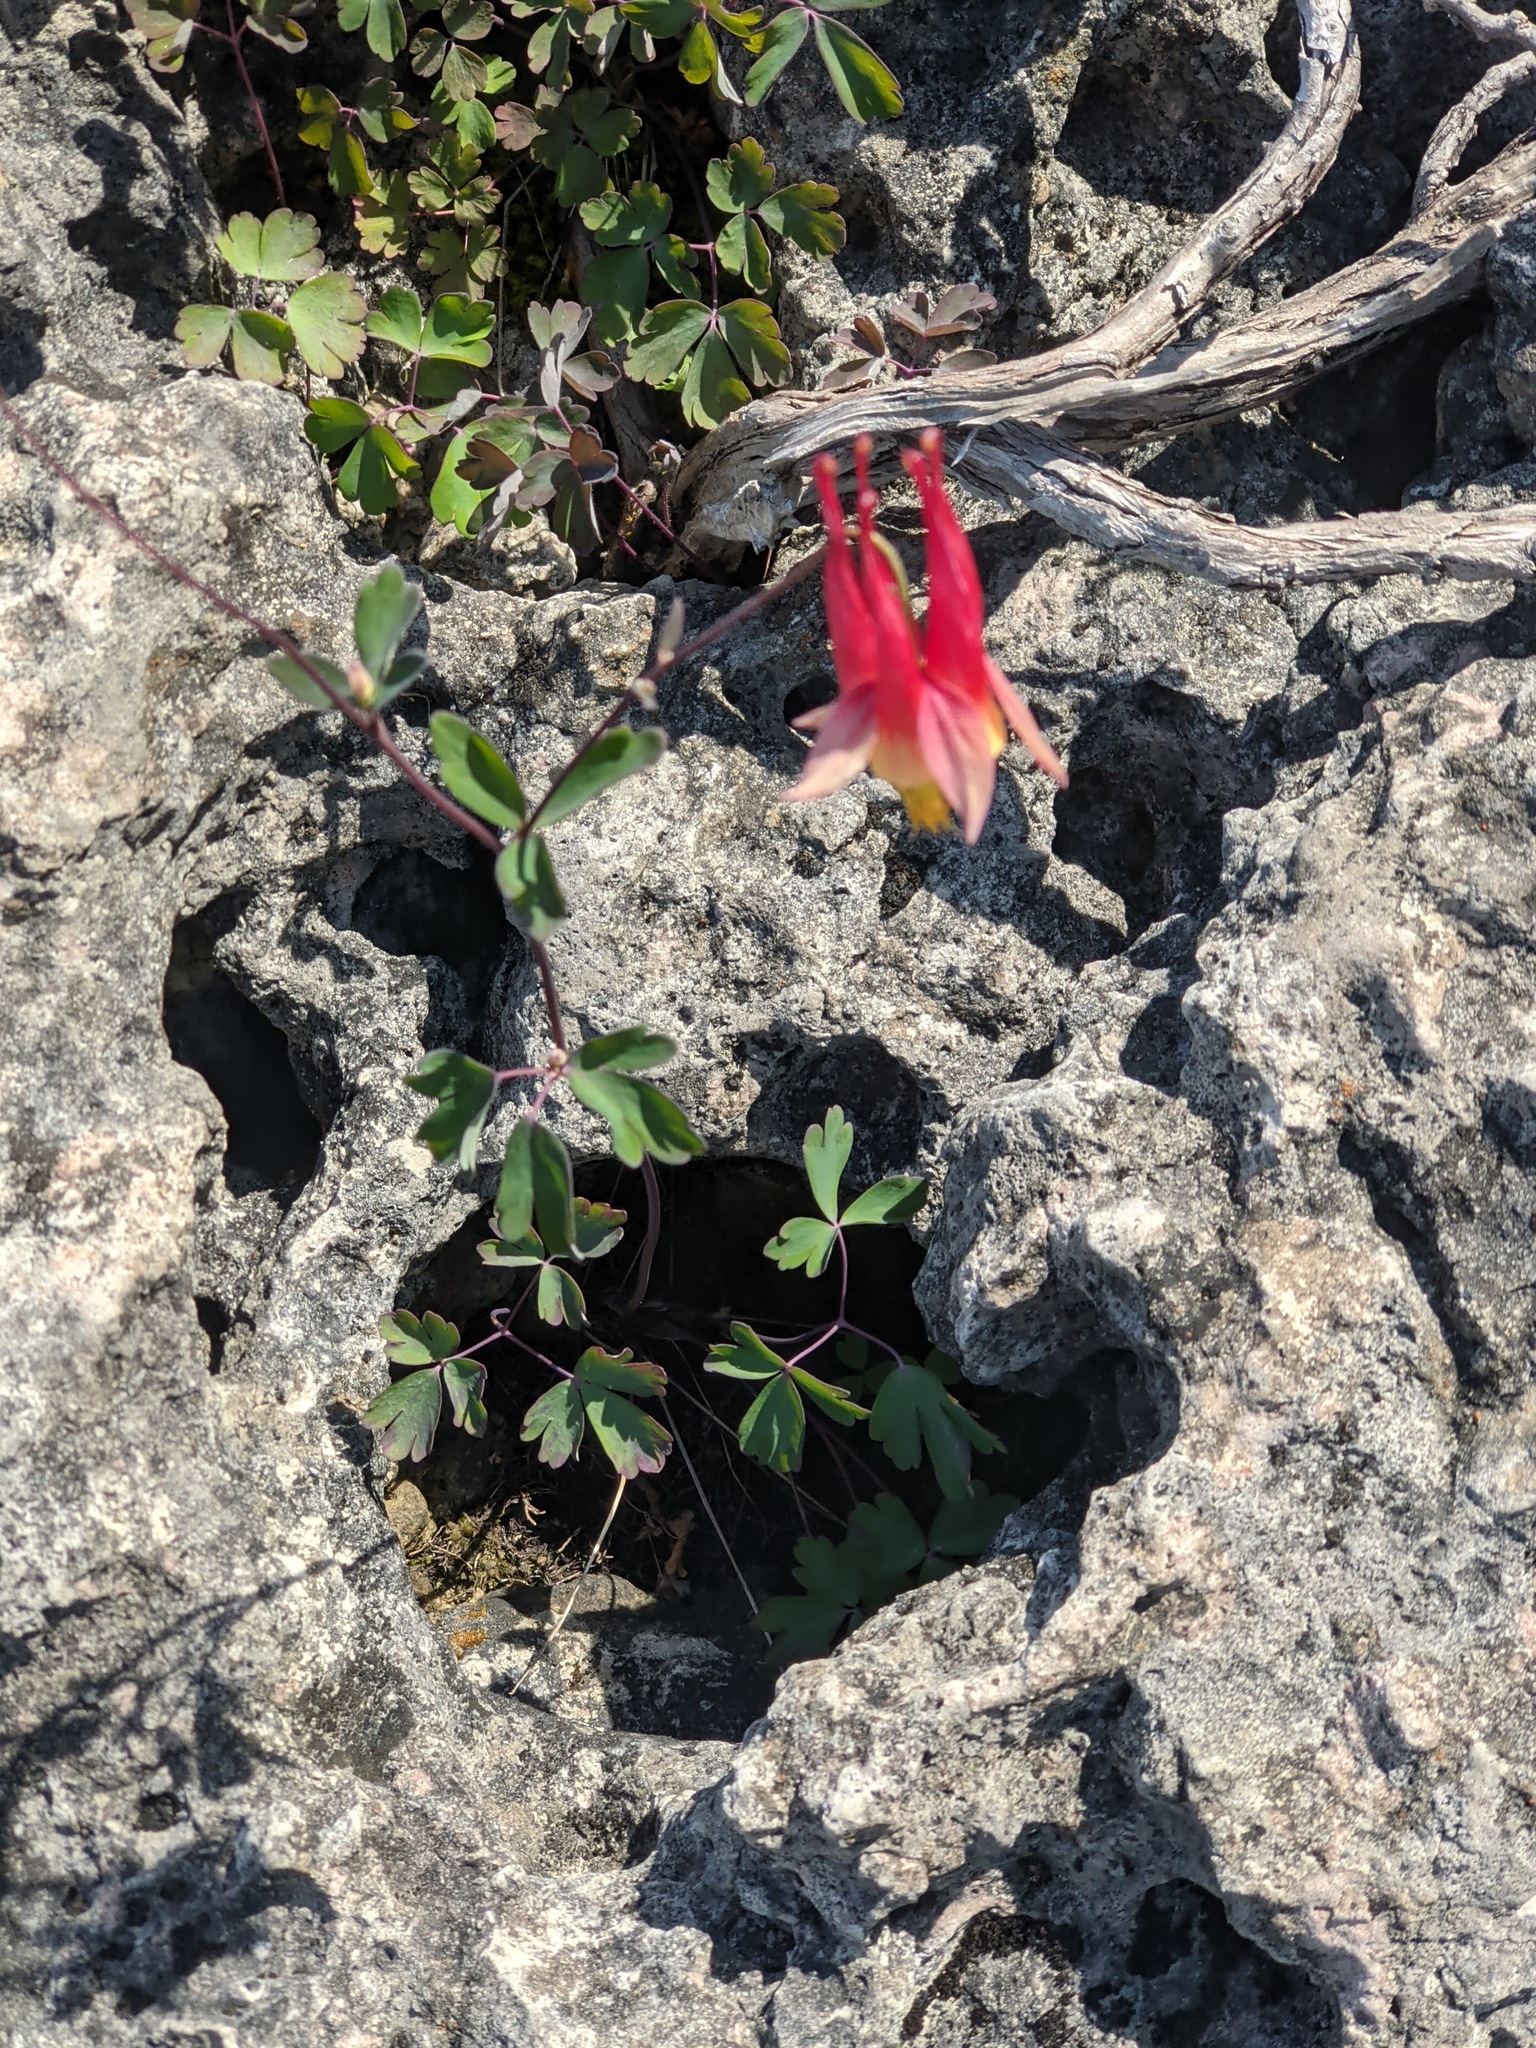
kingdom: Plantae
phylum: Tracheophyta
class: Magnoliopsida
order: Ranunculales
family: Ranunculaceae
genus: Aquilegia
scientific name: Aquilegia canadensis
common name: American columbine
